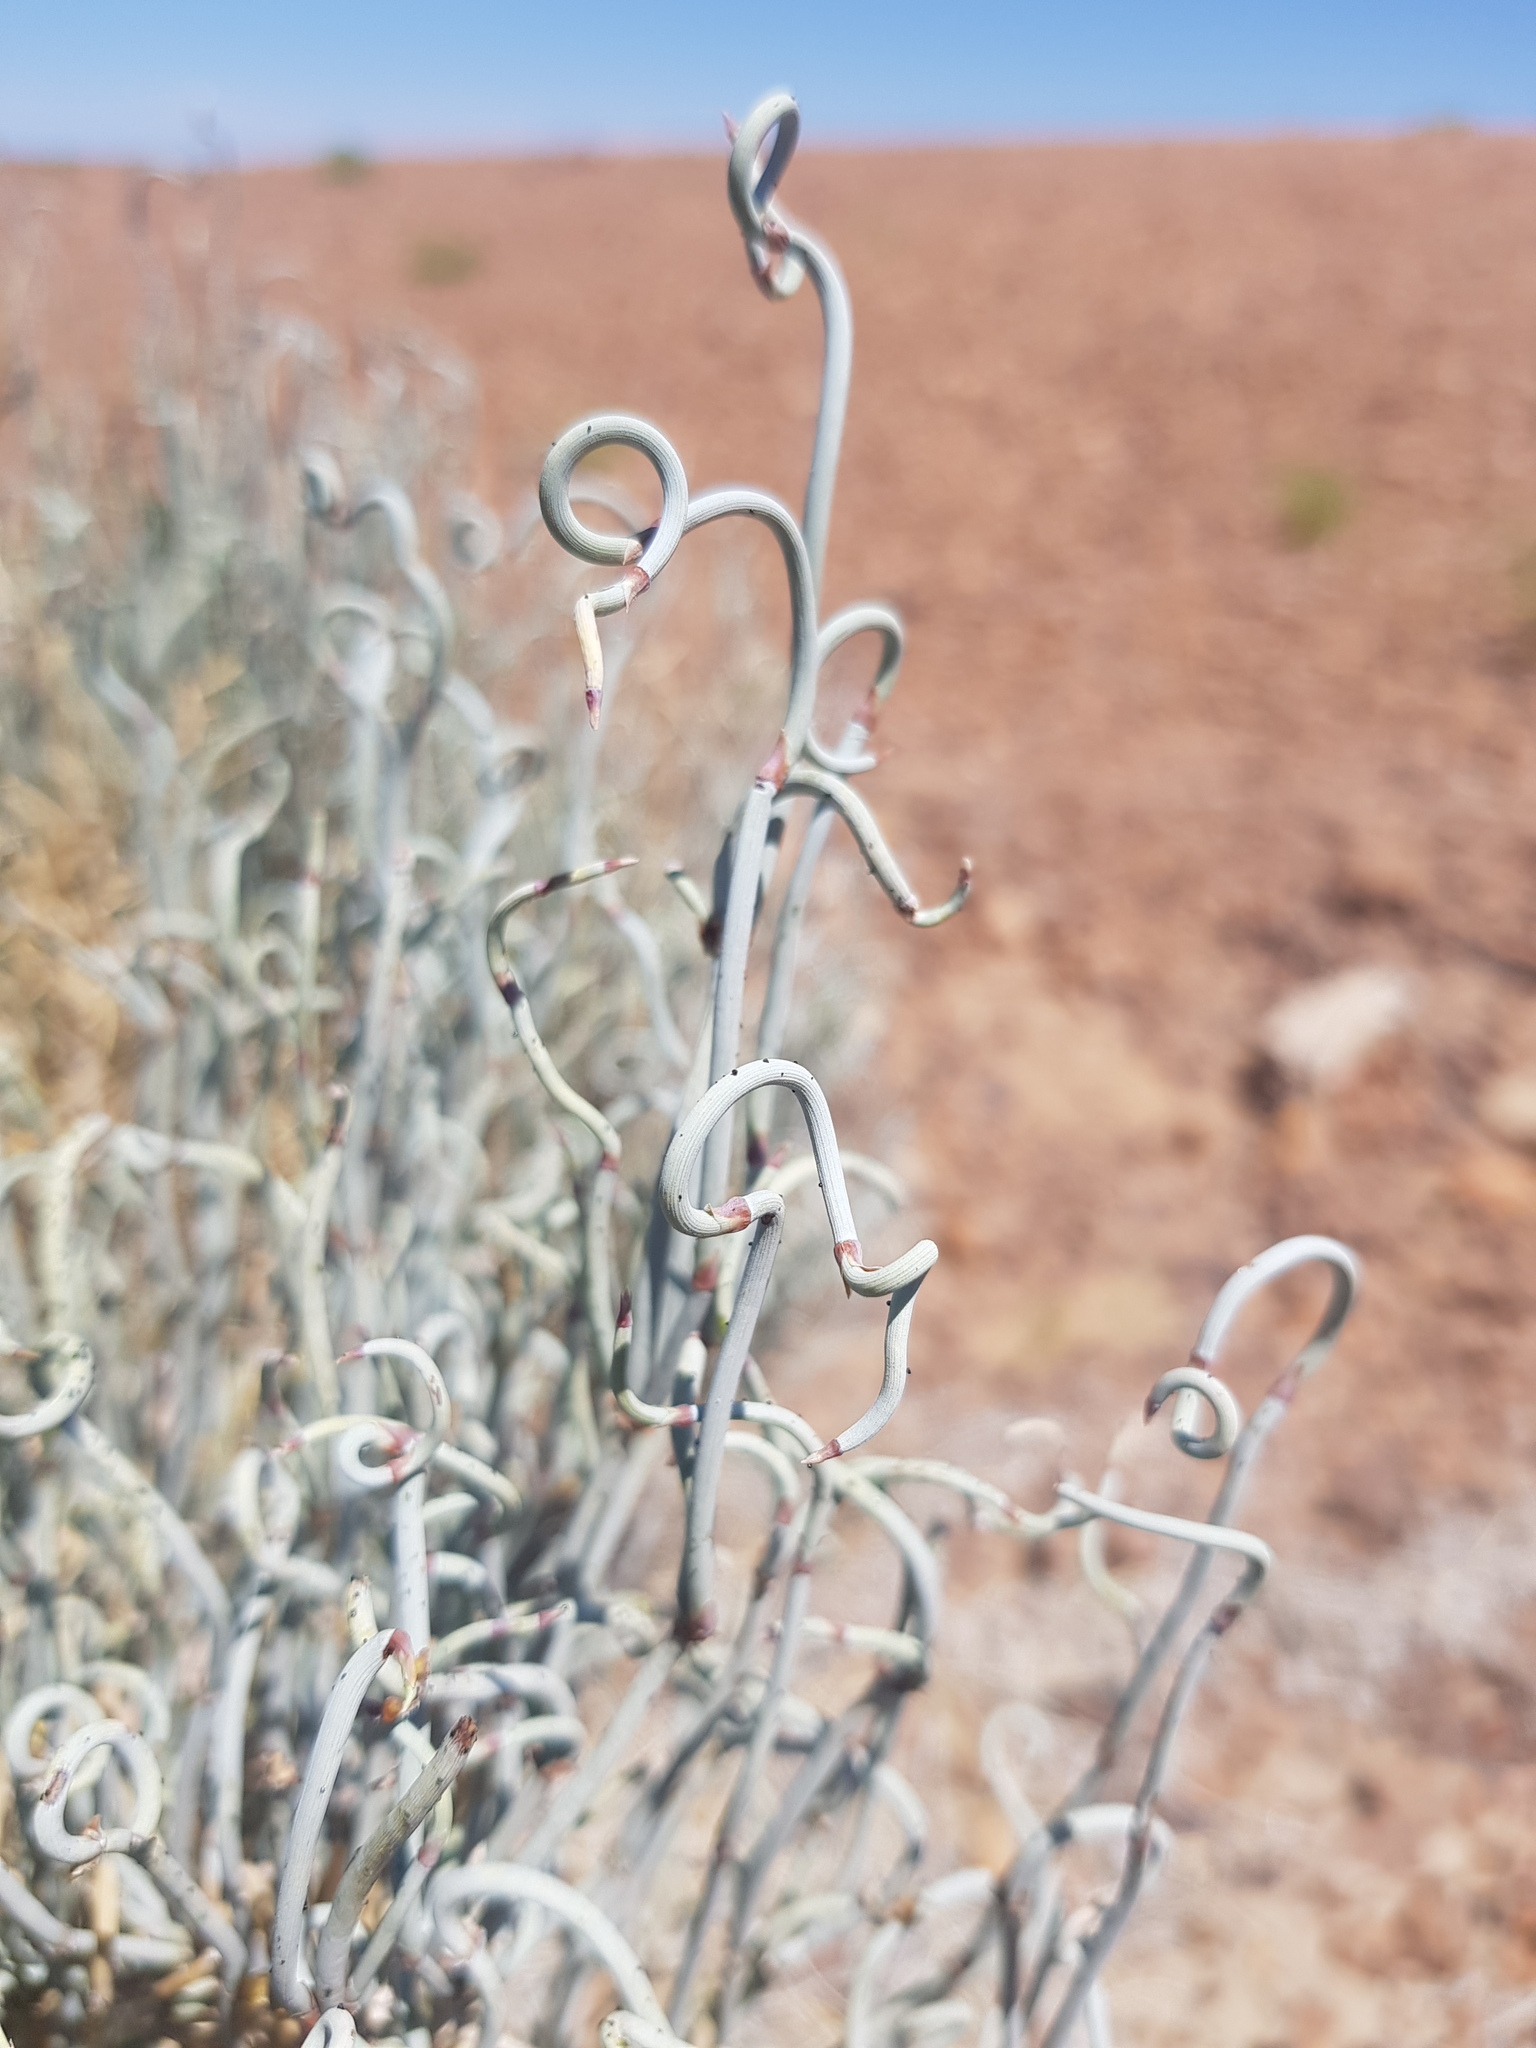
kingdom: Plantae
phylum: Tracheophyta
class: Gnetopsida
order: Ephedrales
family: Ephedraceae
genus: Ephedra
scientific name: Ephedra intermedia
